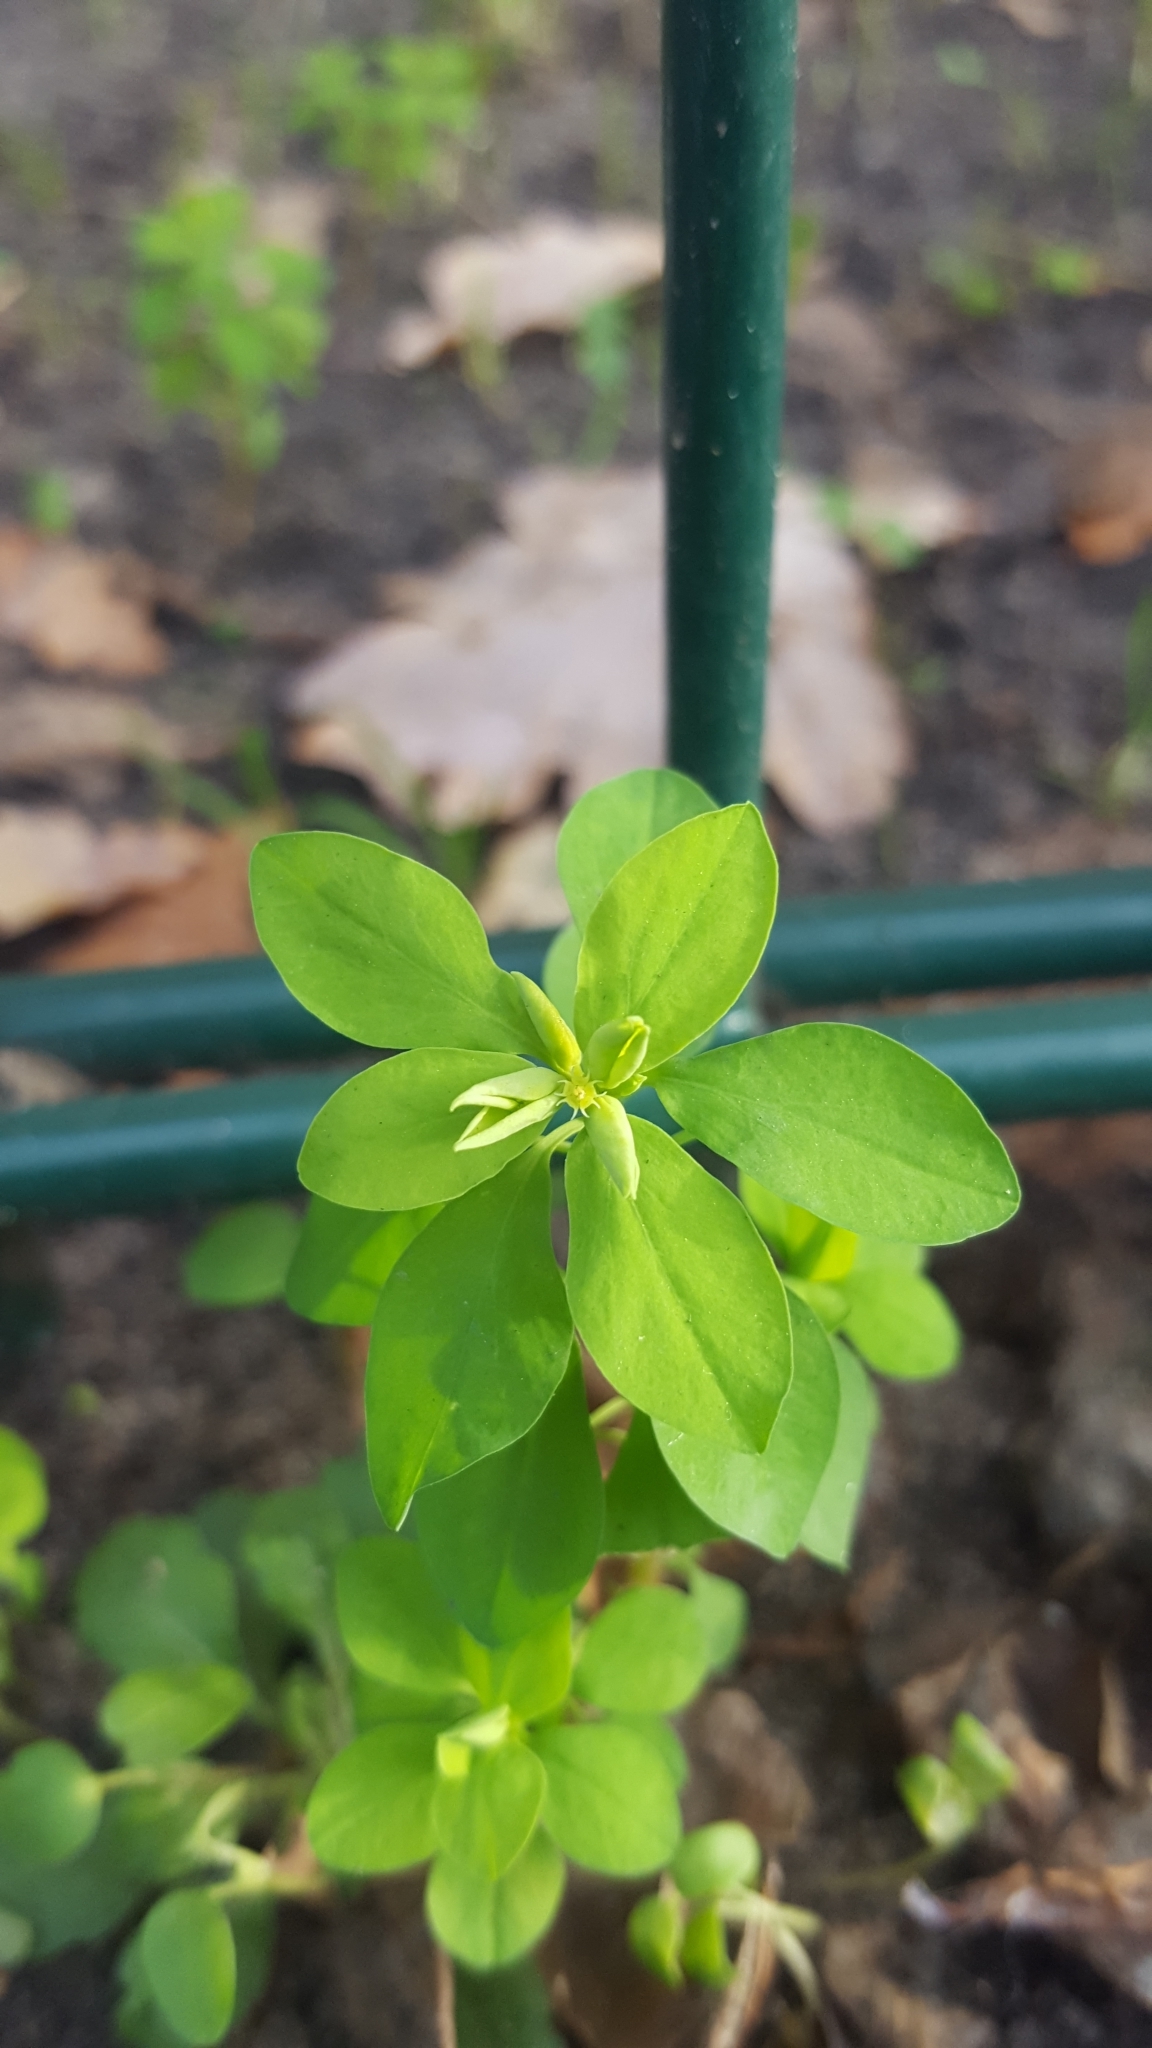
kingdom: Plantae
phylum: Tracheophyta
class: Magnoliopsida
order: Malpighiales
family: Euphorbiaceae
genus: Euphorbia
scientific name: Euphorbia peplus
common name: Petty spurge
